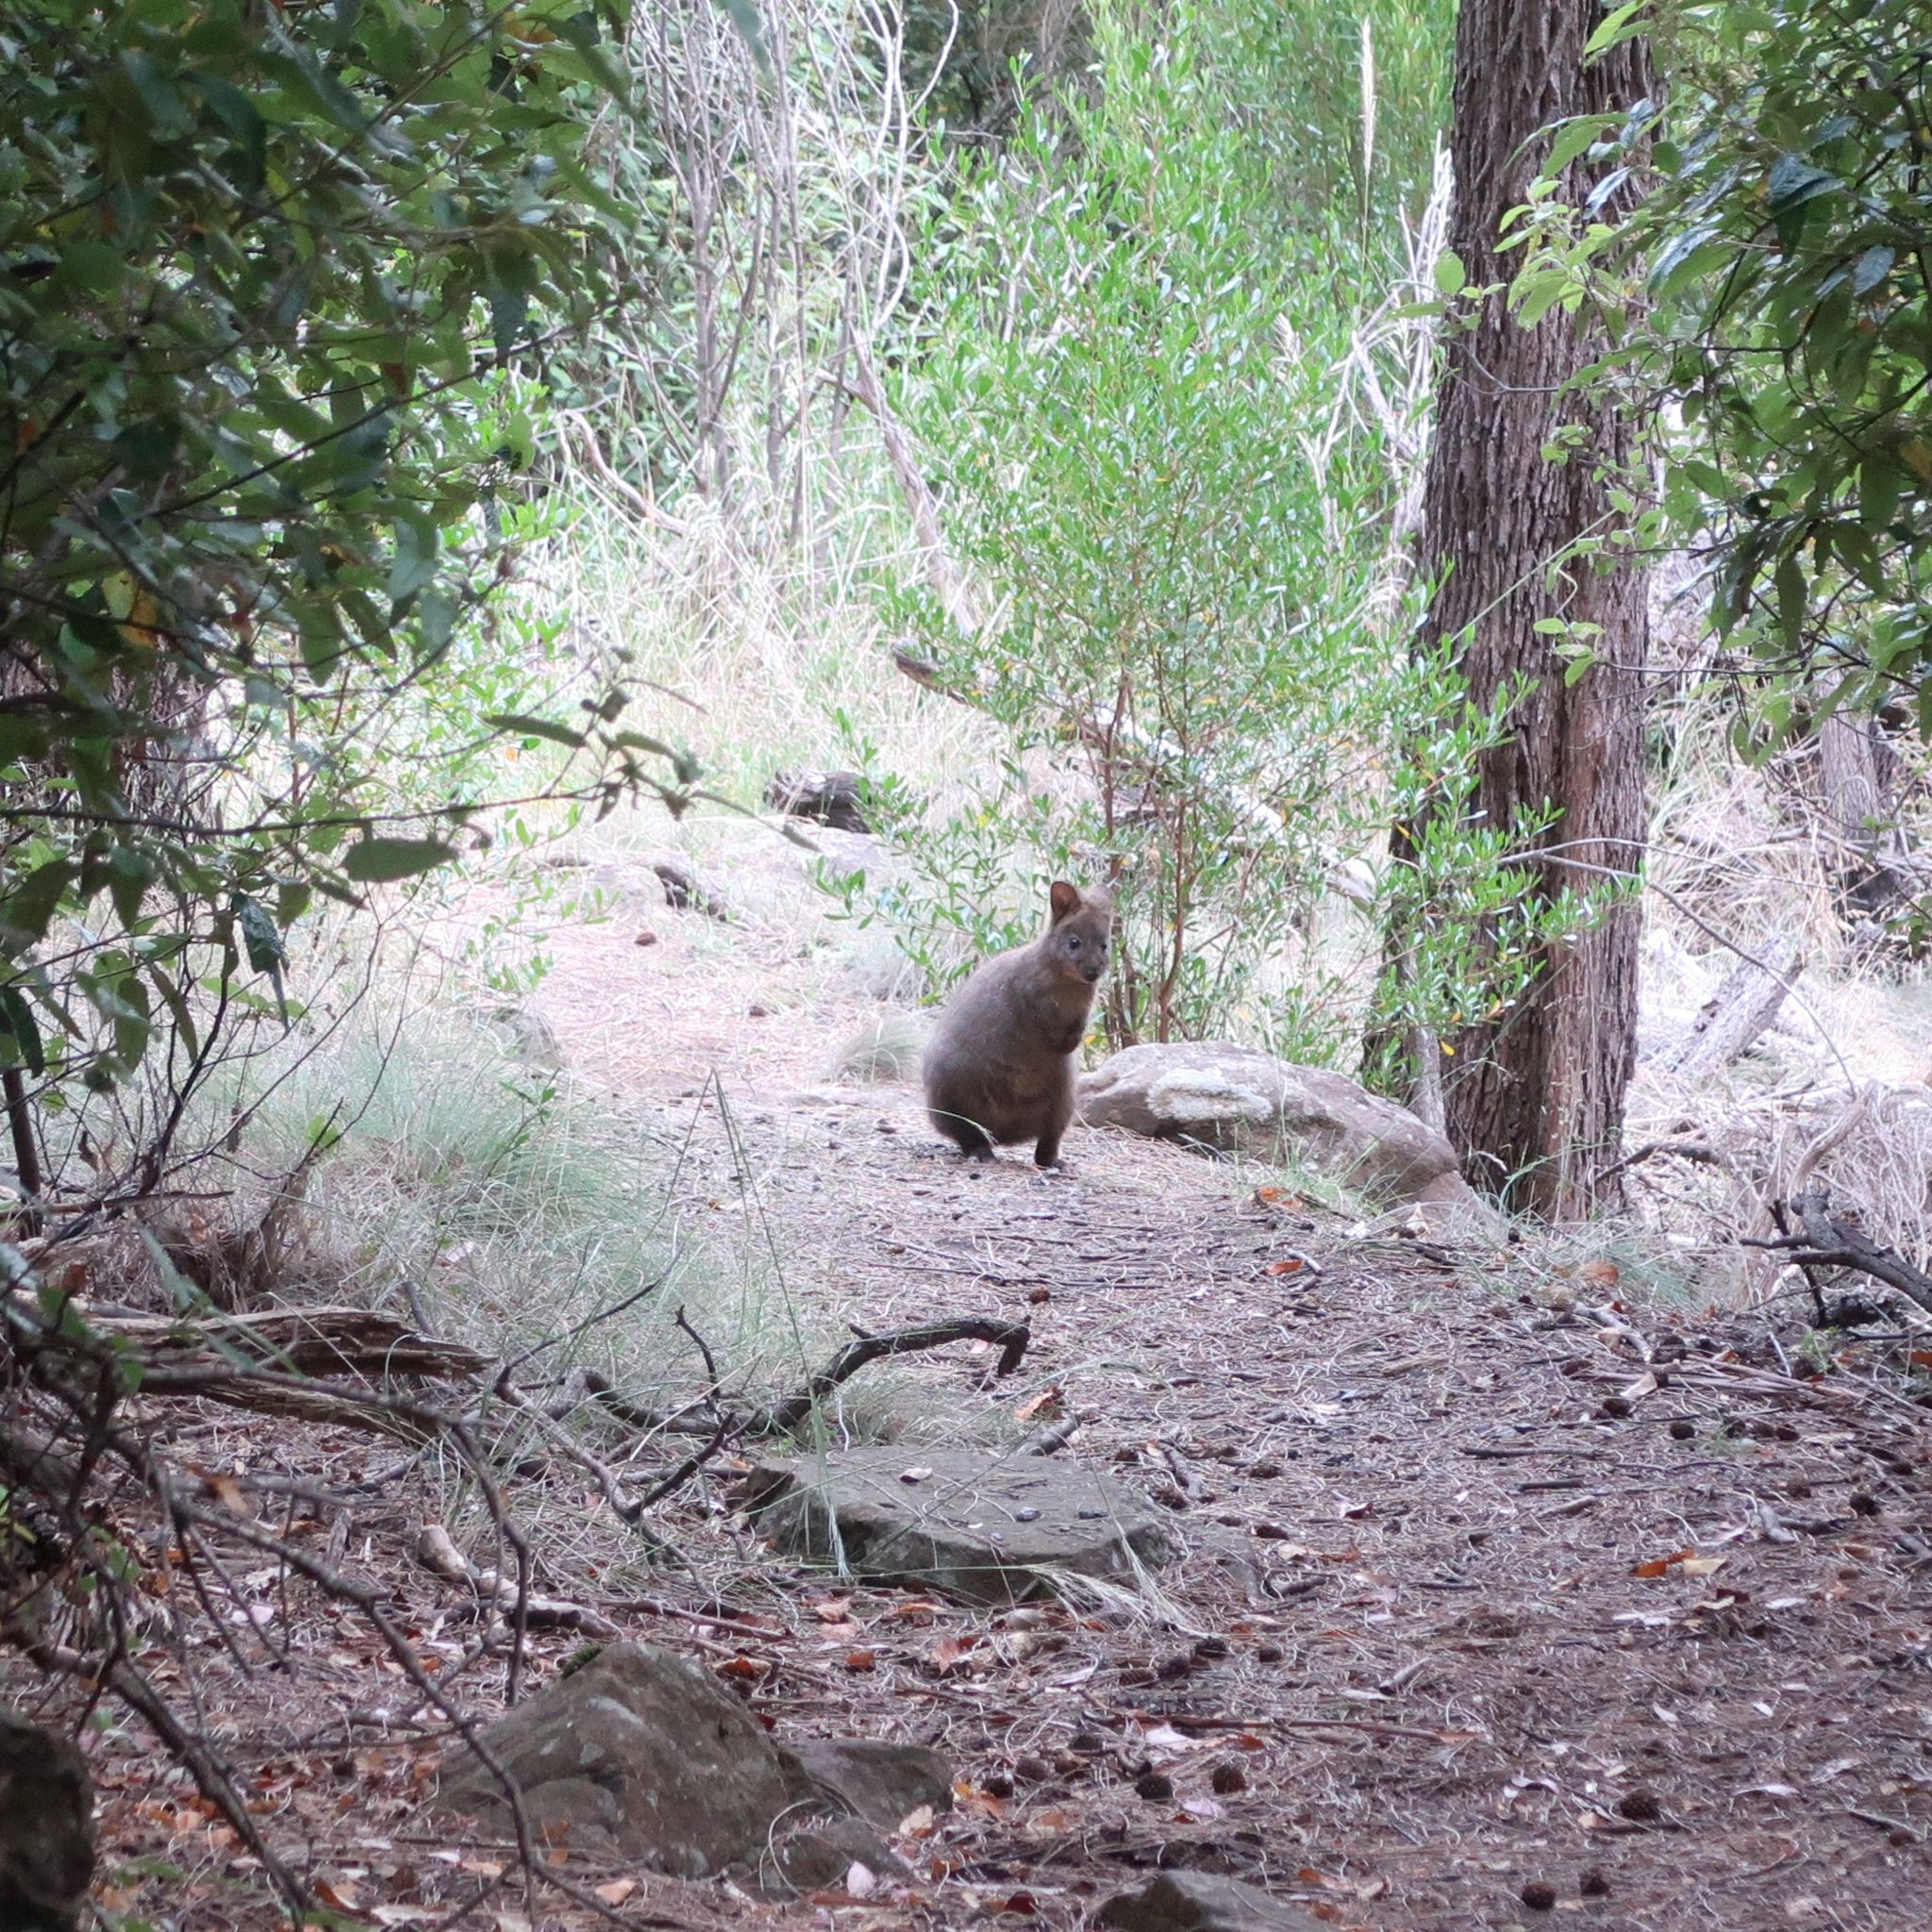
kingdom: Animalia
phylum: Chordata
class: Mammalia
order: Diprotodontia
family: Macropodidae
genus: Thylogale
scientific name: Thylogale billardierii
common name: Tasmanian pademelon
